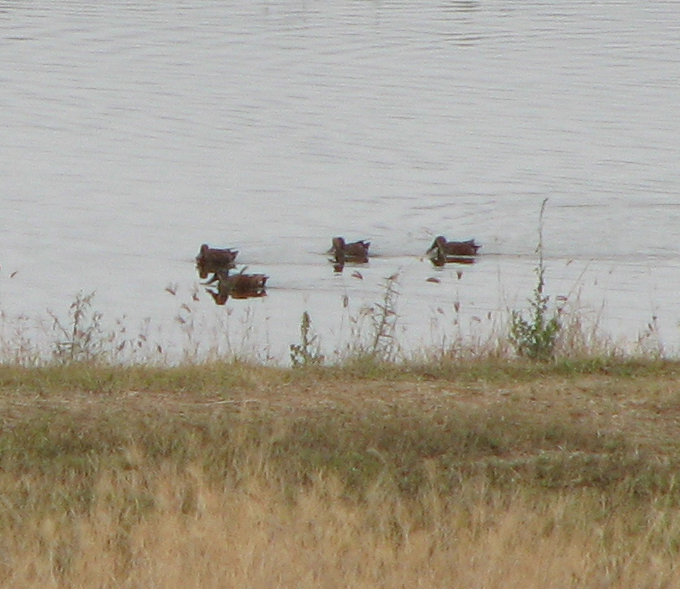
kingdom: Animalia
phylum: Chordata
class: Aves
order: Anseriformes
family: Anatidae
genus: Spatula
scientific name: Spatula rhynchotis
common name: Australian shoveler
